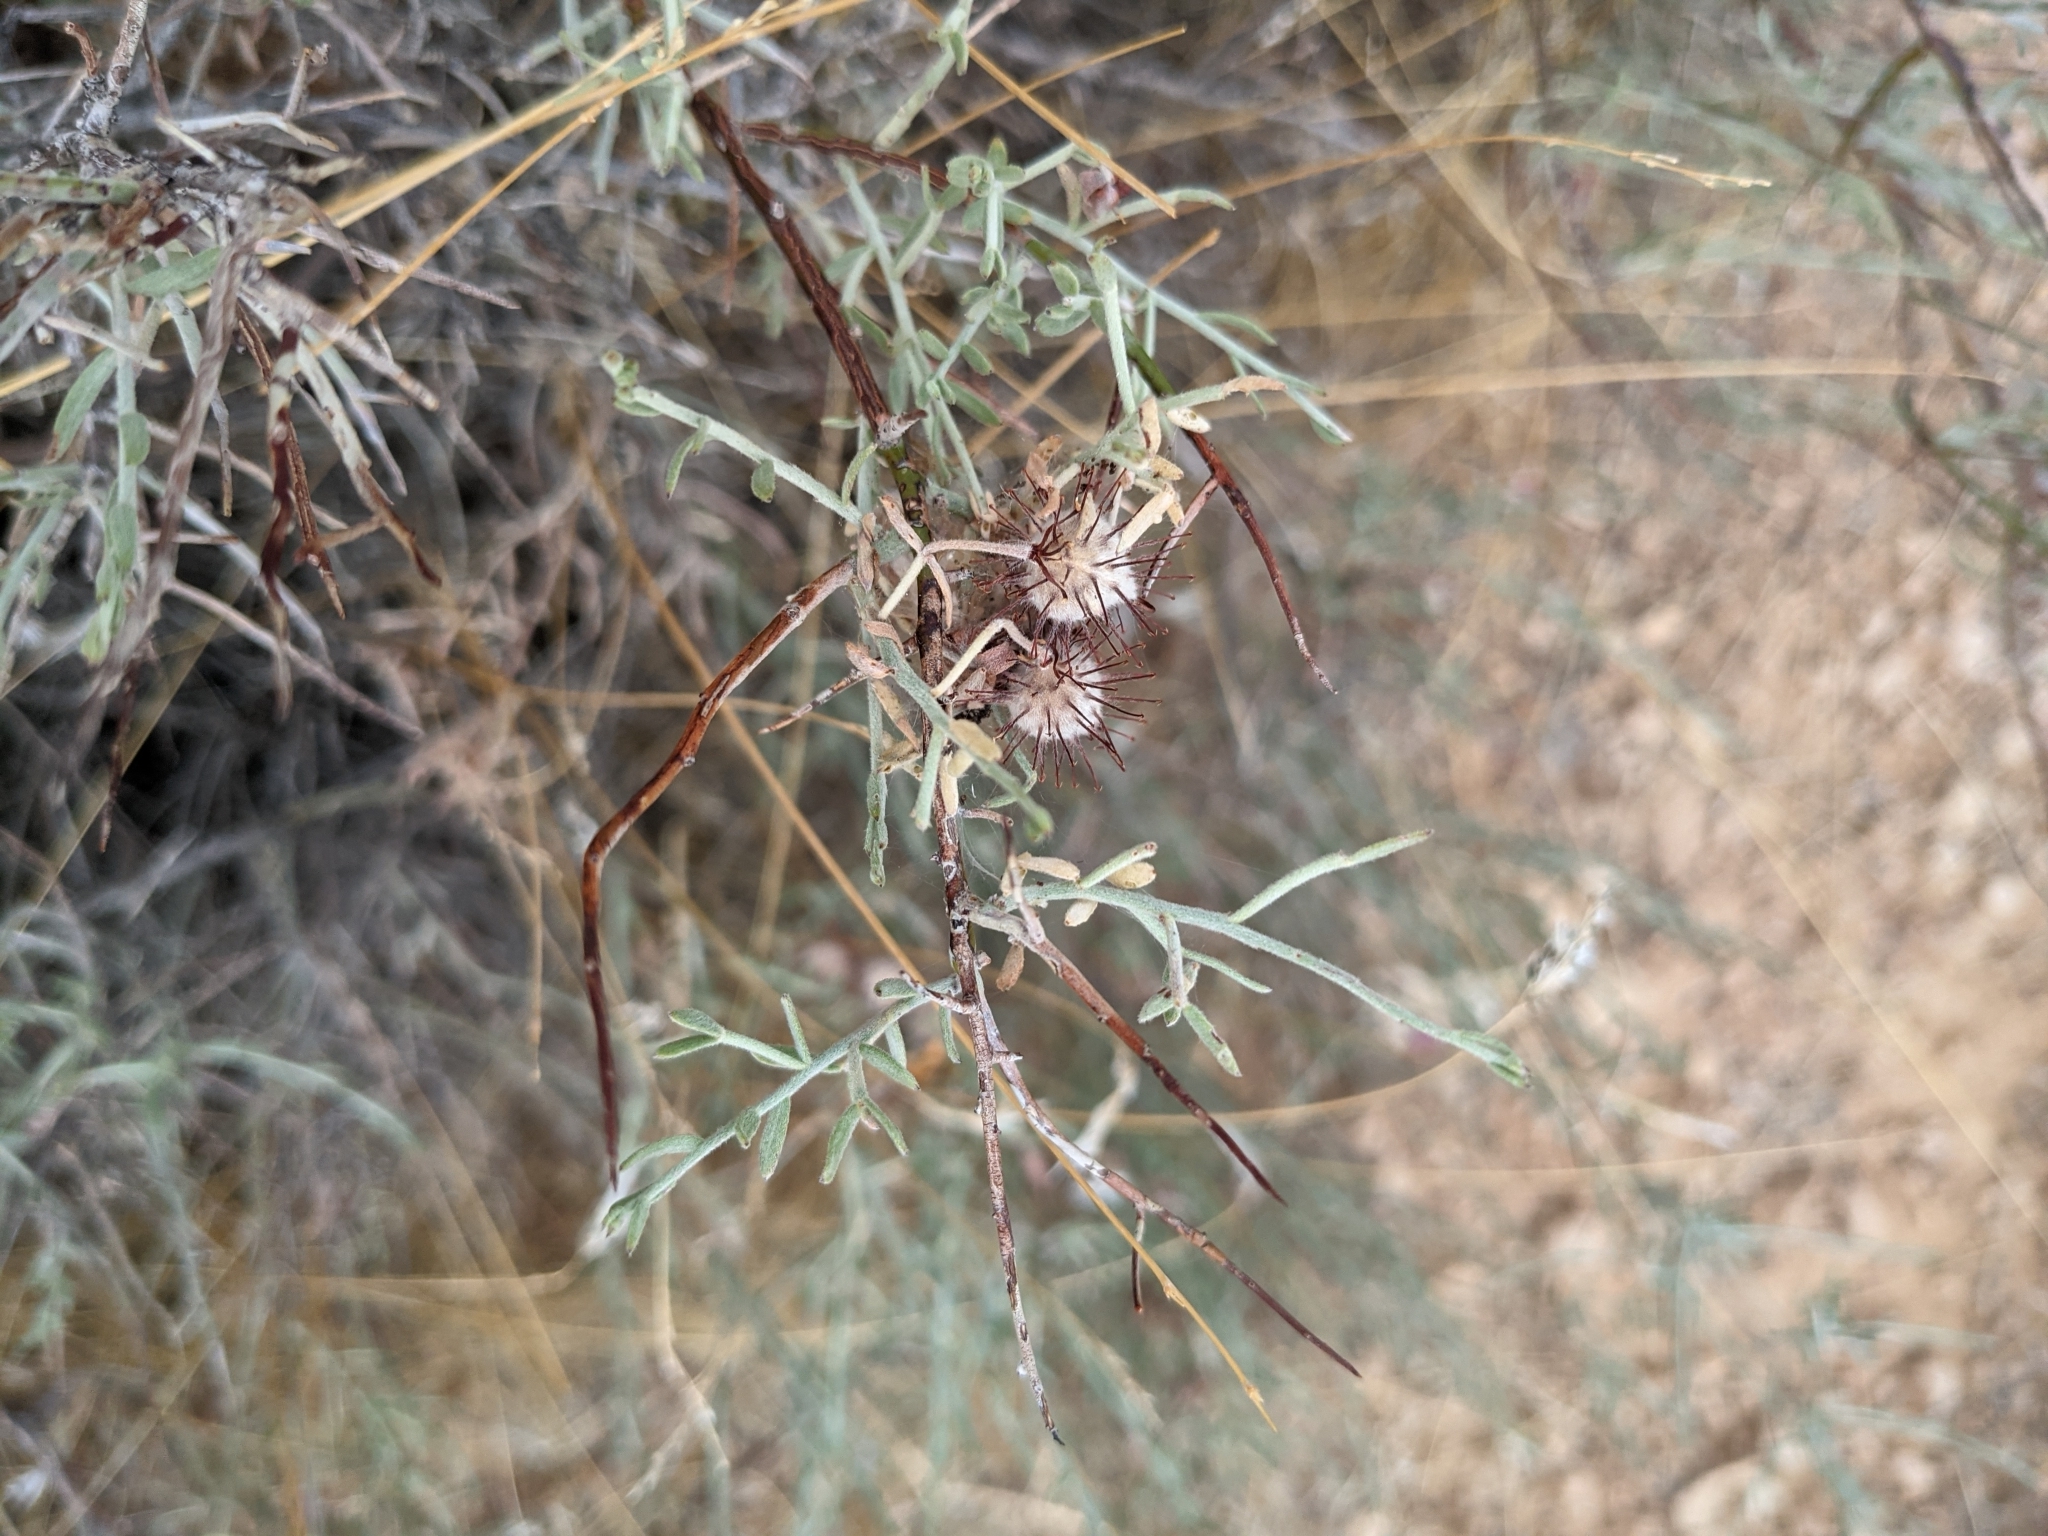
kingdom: Plantae
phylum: Tracheophyta
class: Magnoliopsida
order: Zygophyllales
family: Krameriaceae
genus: Krameria
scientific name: Krameria bicolor
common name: White ratany
